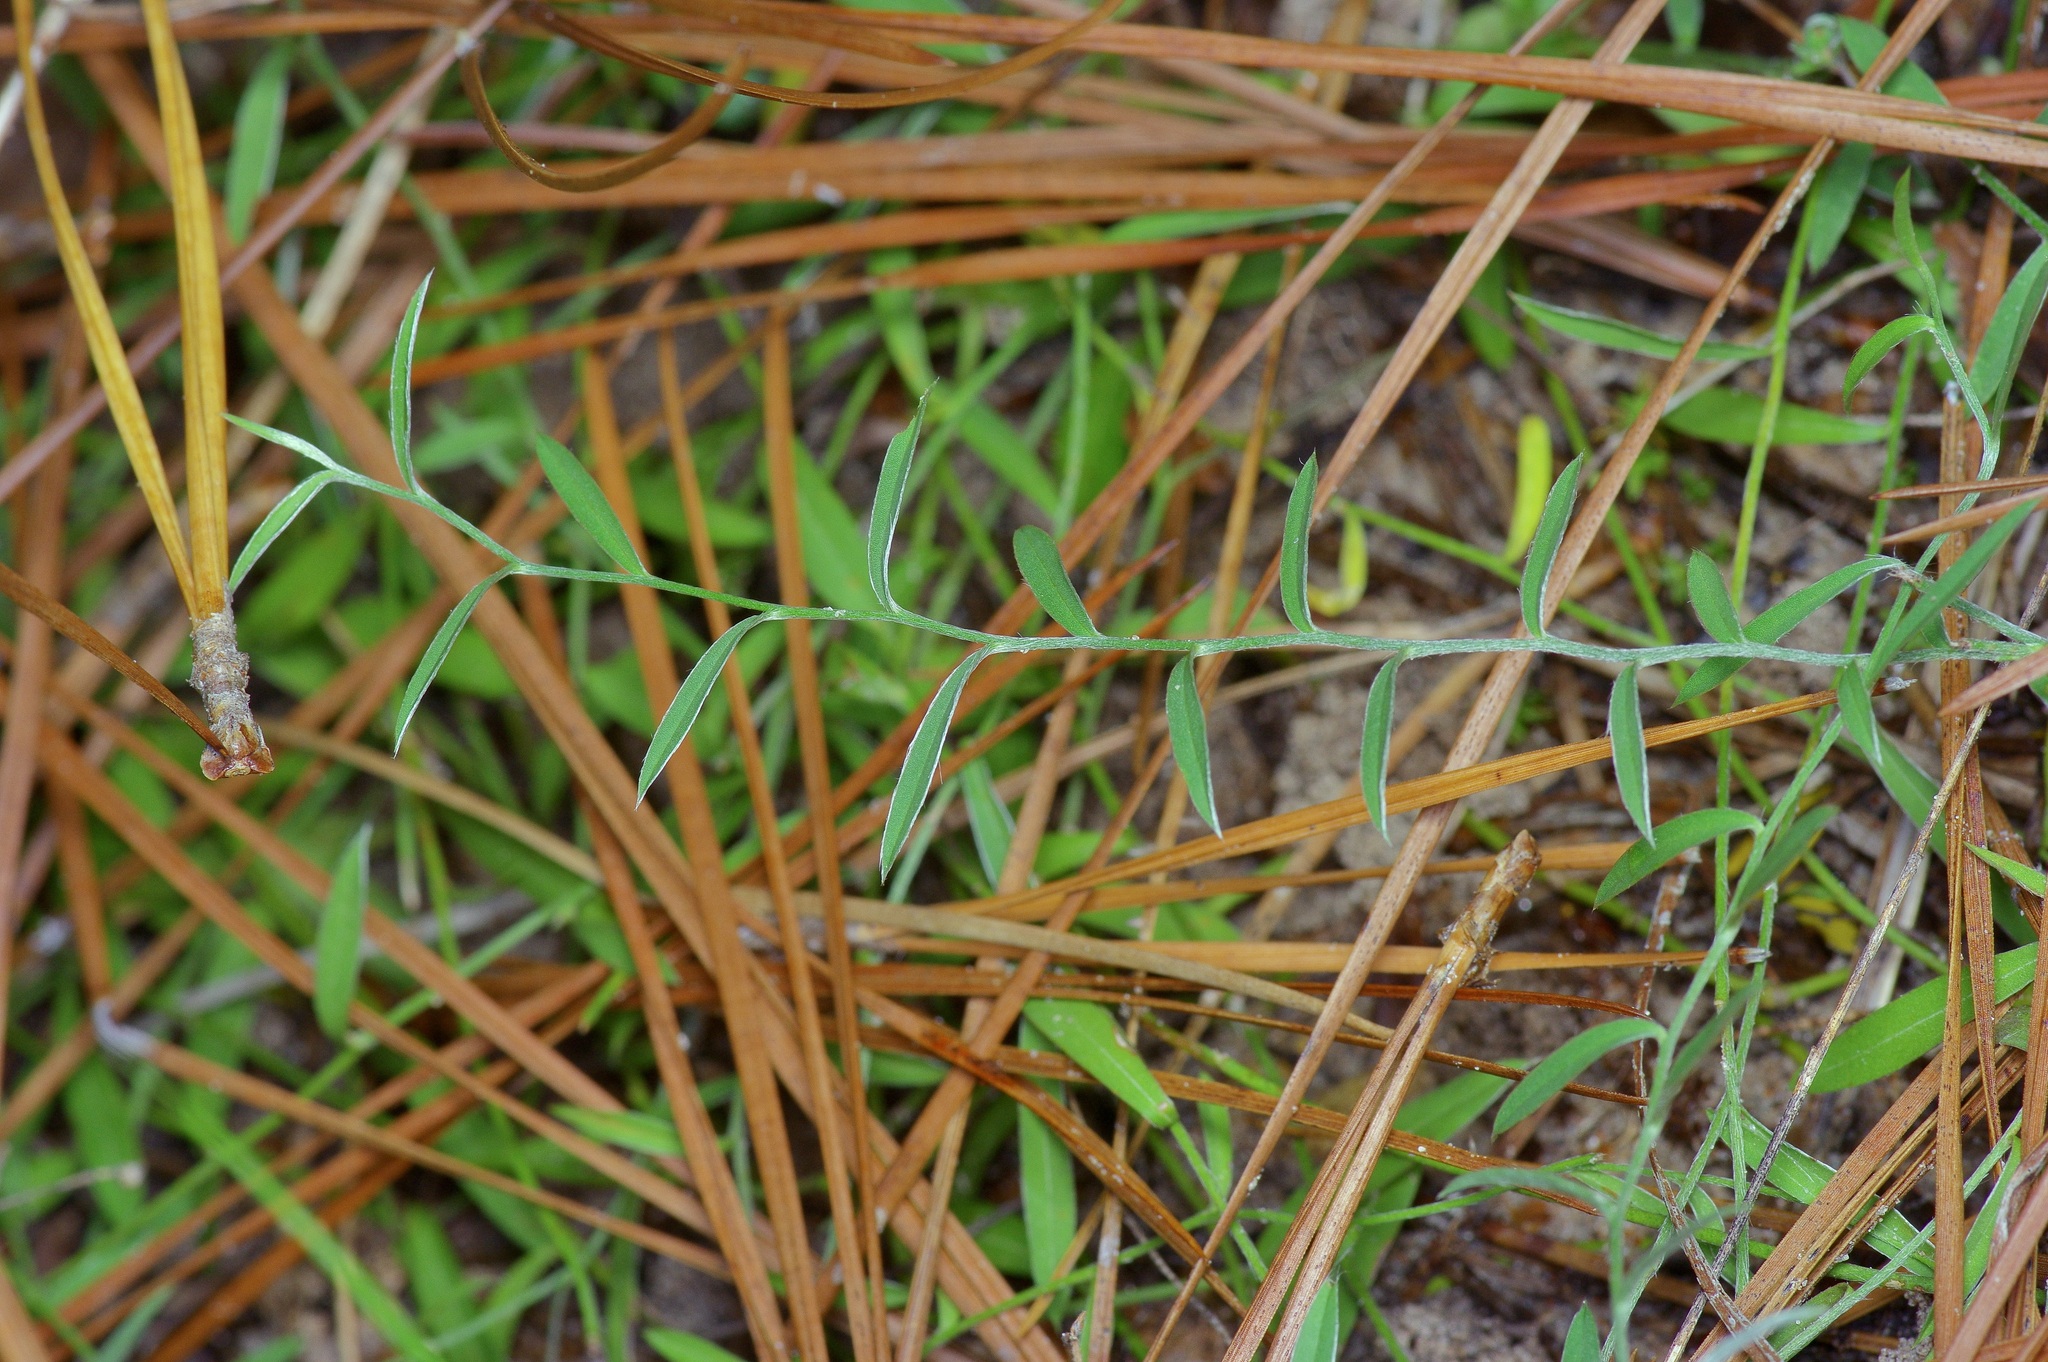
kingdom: Plantae
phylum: Tracheophyta
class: Magnoliopsida
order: Solanales
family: Convolvulaceae
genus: Evolvulus
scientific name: Evolvulus sericeus
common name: Blue dots
